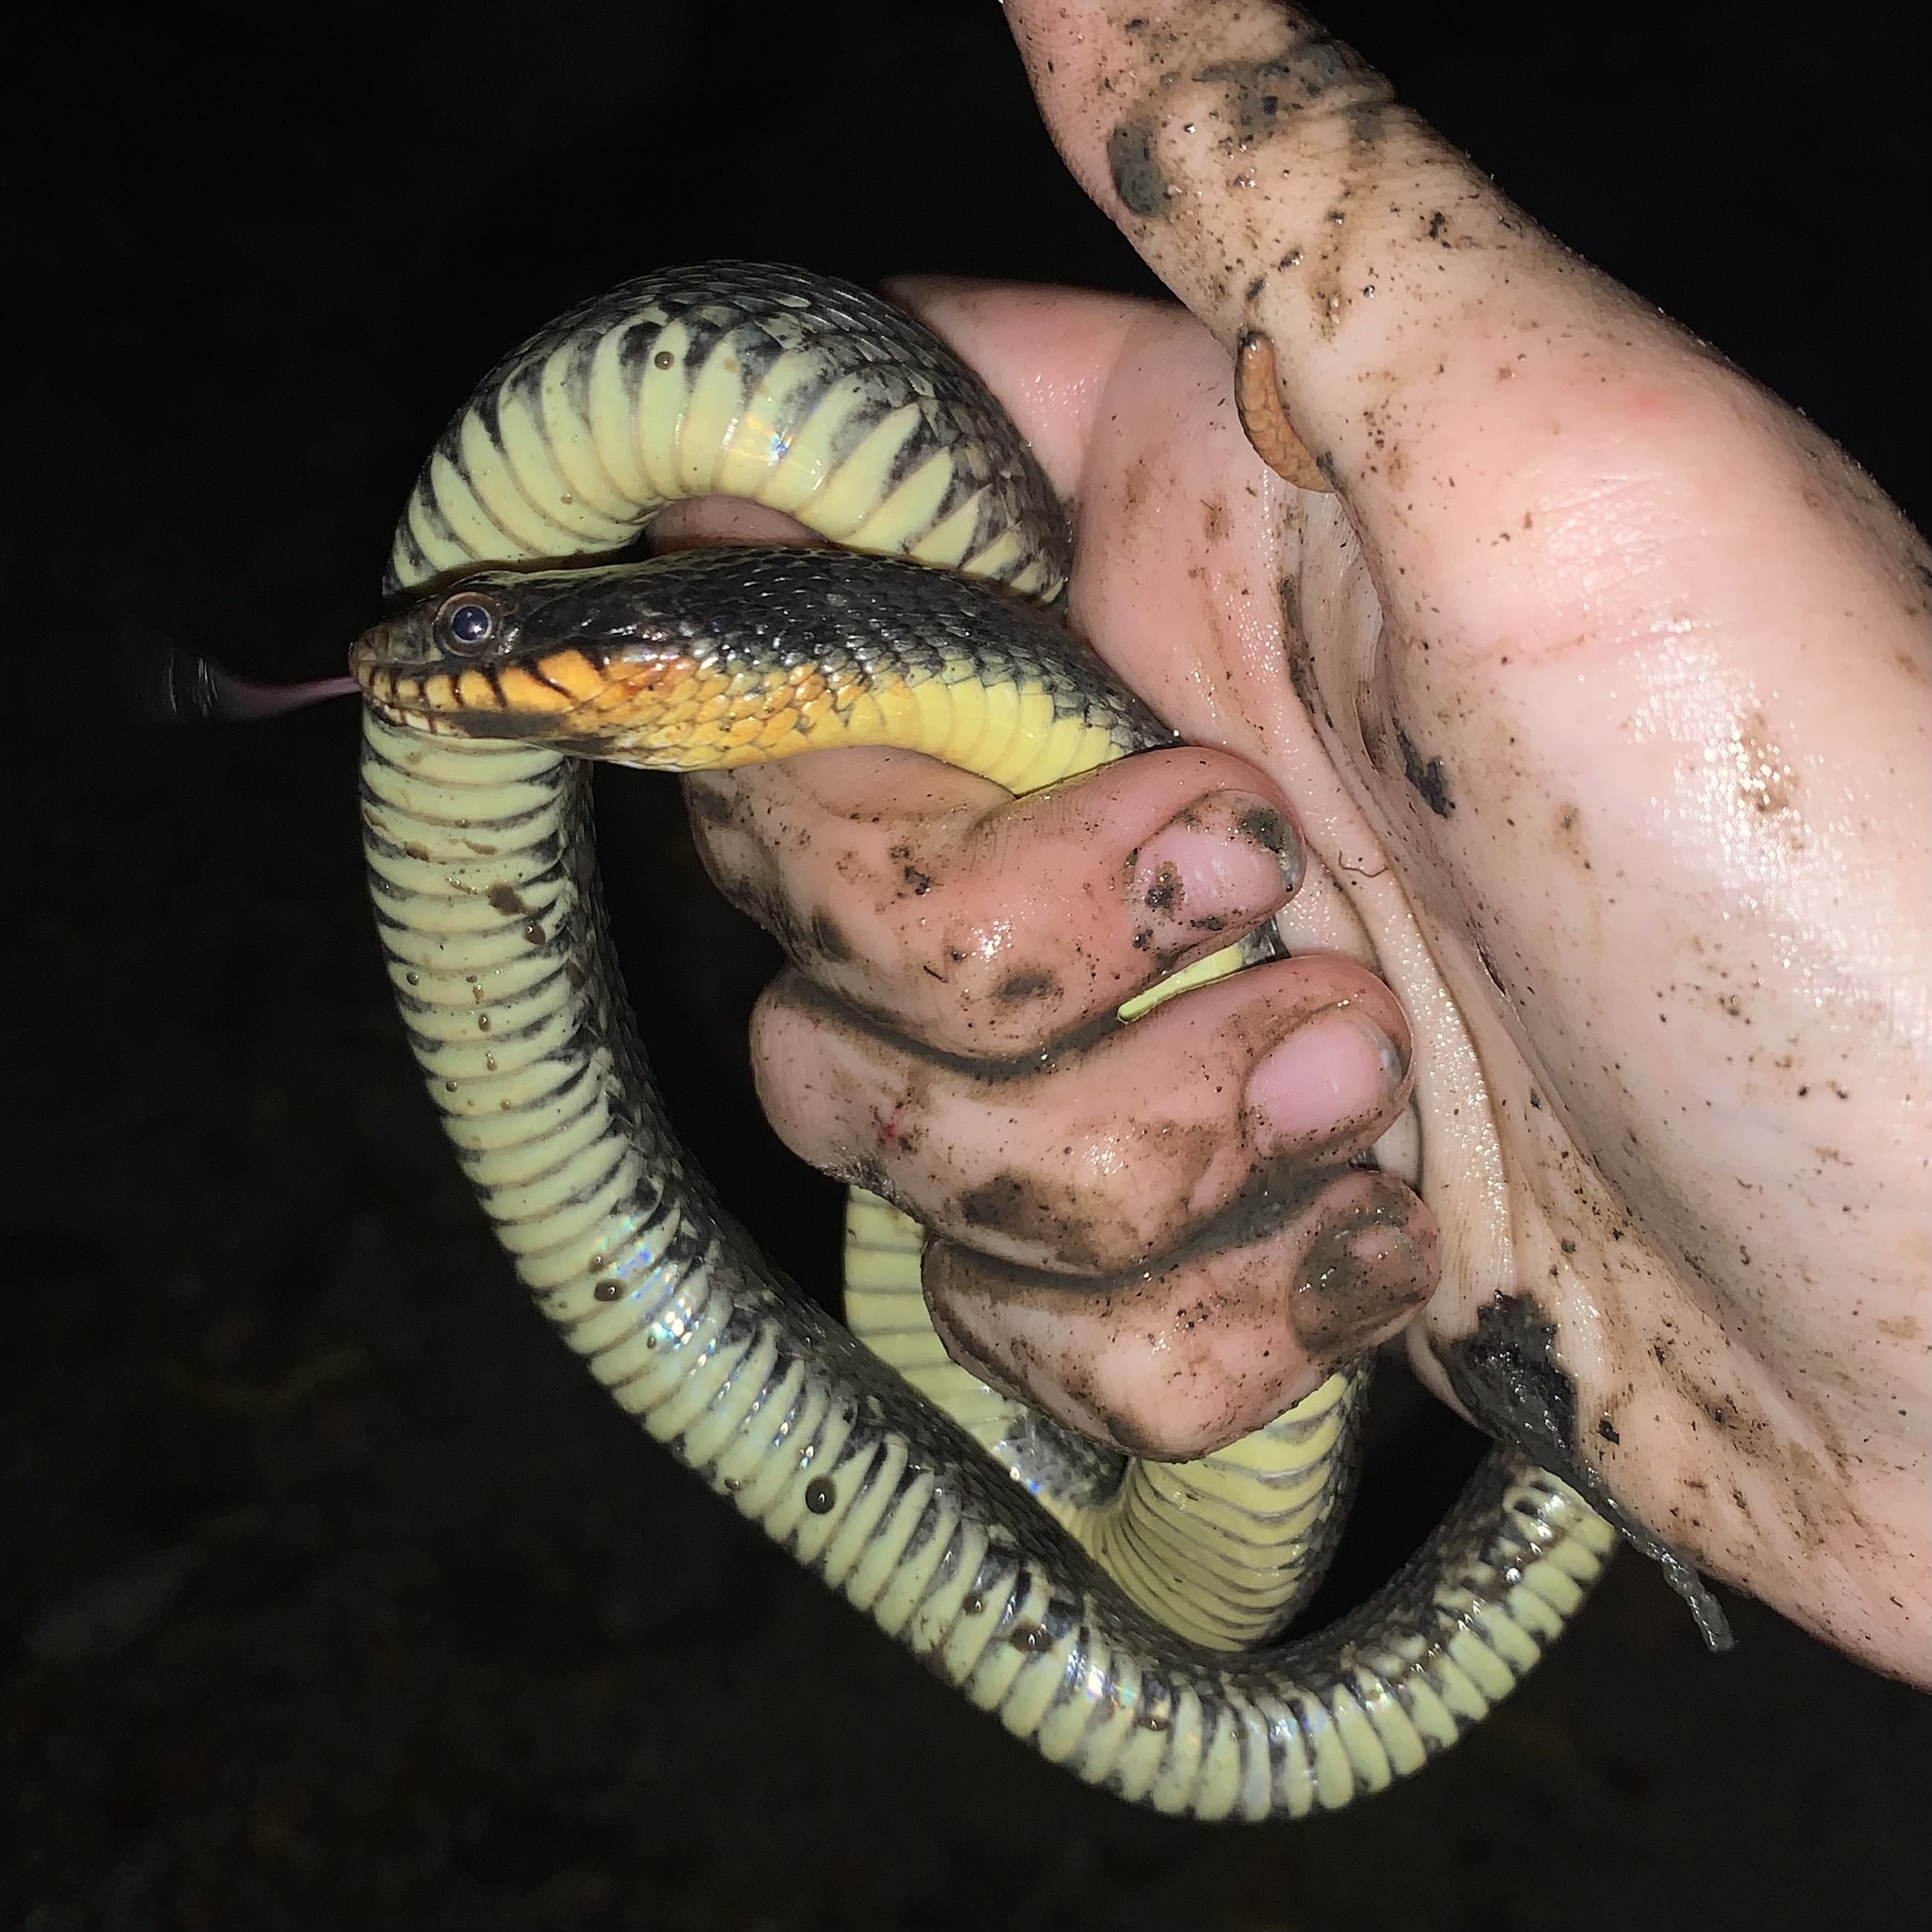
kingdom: Animalia
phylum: Chordata
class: Squamata
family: Colubridae
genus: Nerodia
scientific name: Nerodia erythrogaster
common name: Plainbelly water snake
